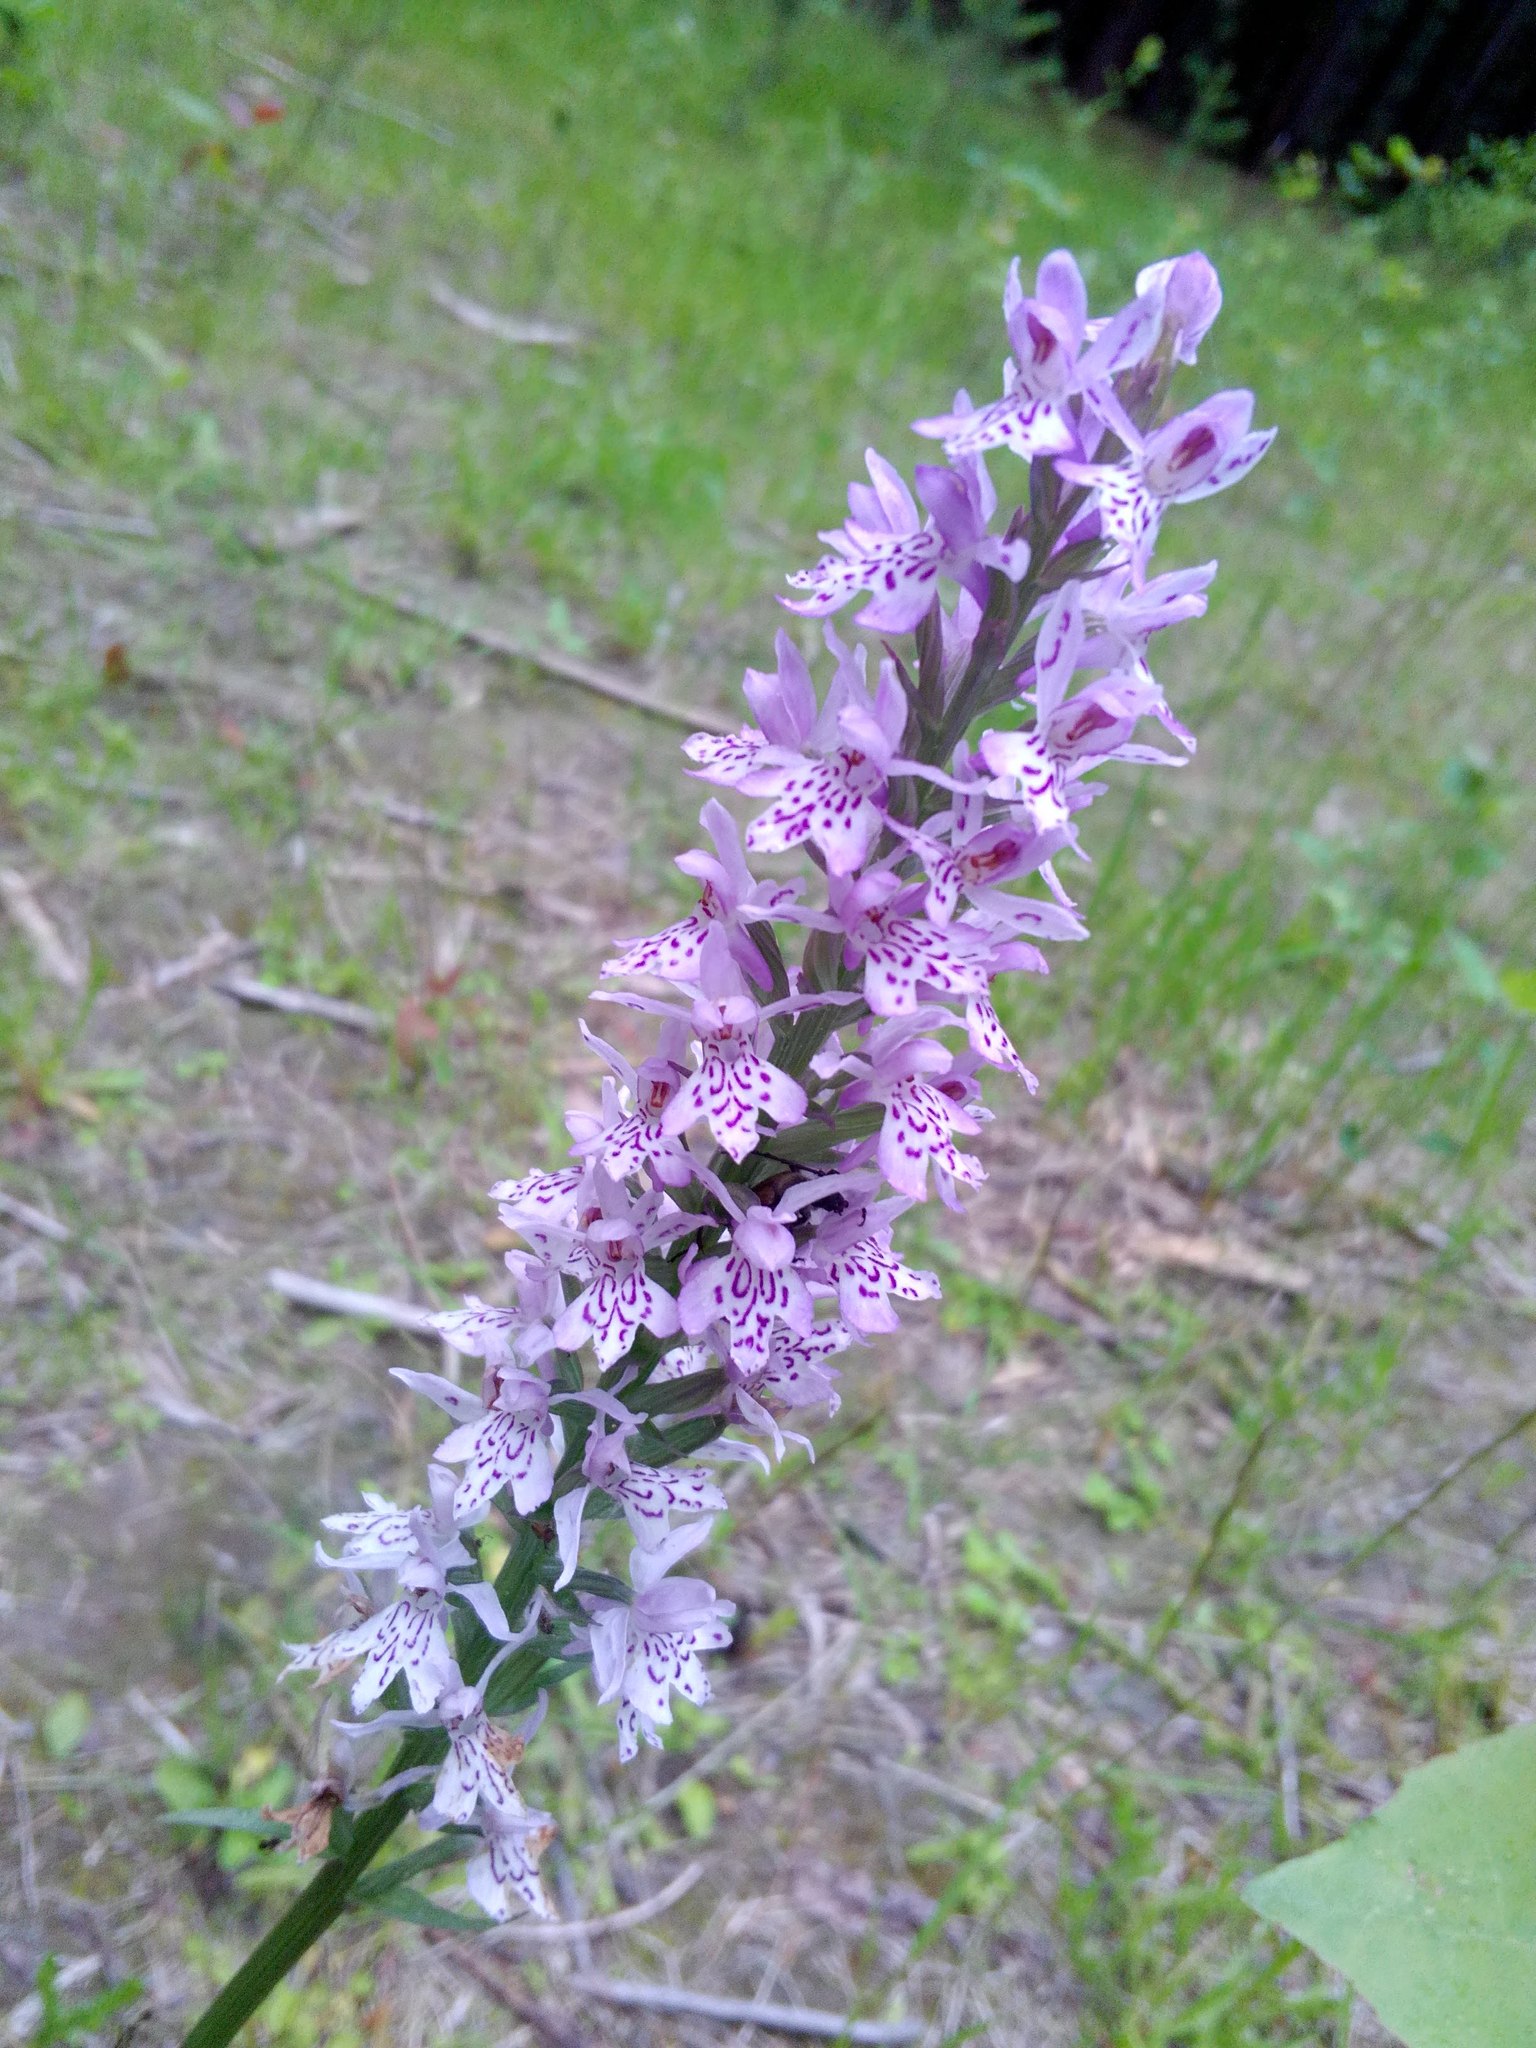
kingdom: Plantae
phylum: Tracheophyta
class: Liliopsida
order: Asparagales
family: Orchidaceae
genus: Dactylorhiza
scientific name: Dactylorhiza maculata
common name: Heath spotted-orchid
